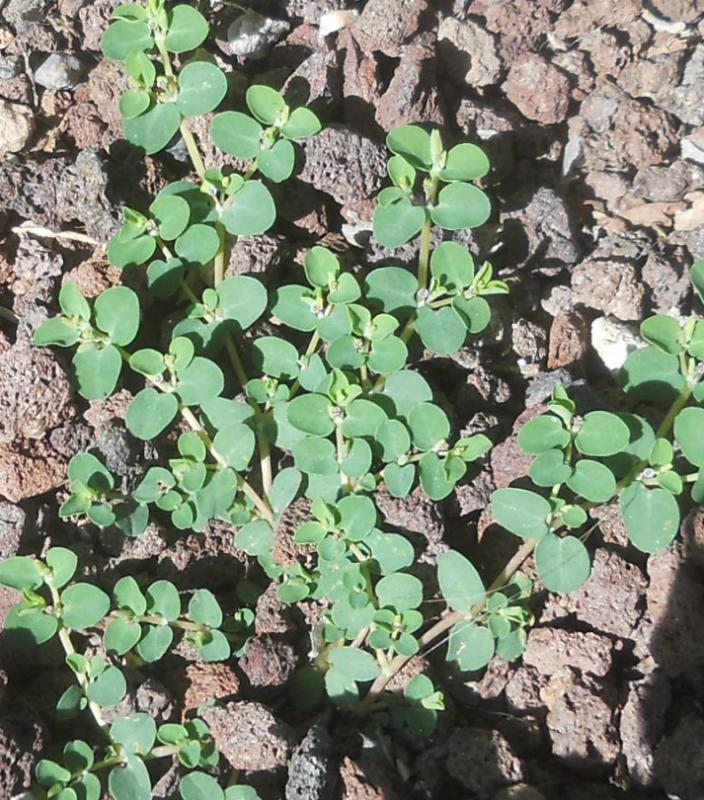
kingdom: Plantae
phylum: Tracheophyta
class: Magnoliopsida
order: Malpighiales
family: Euphorbiaceae
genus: Euphorbia
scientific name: Euphorbia serpens
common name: Matted sandmat
